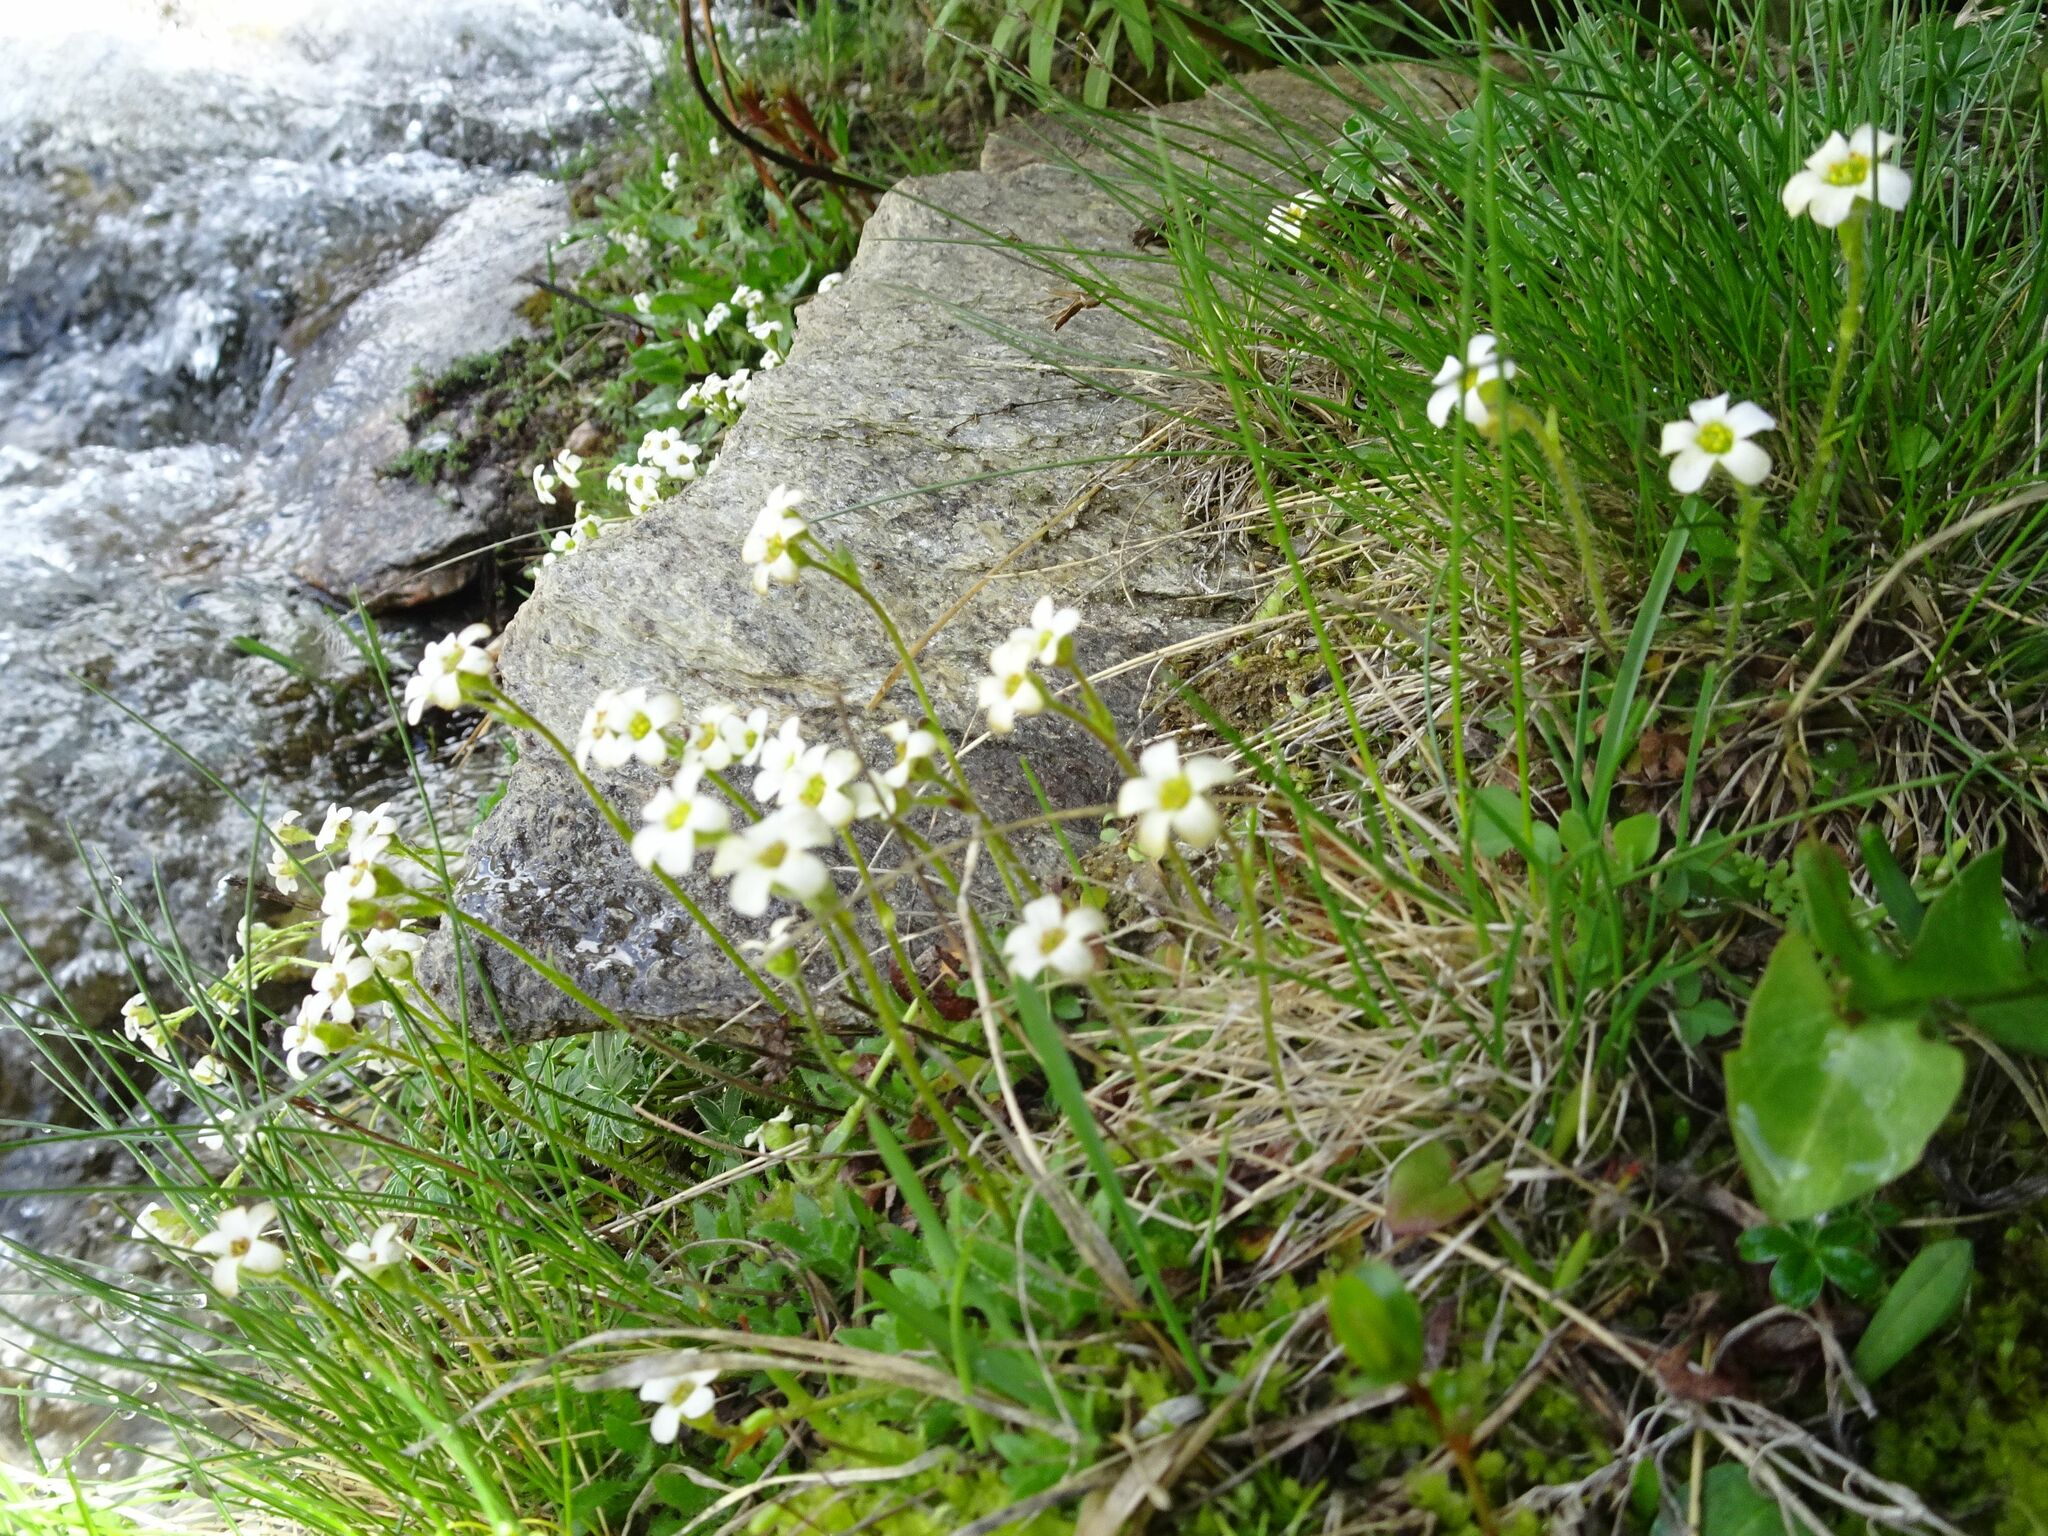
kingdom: Plantae
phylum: Tracheophyta
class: Magnoliopsida
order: Saxifragales
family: Saxifragaceae
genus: Saxifraga
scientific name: Saxifraga androsacea
